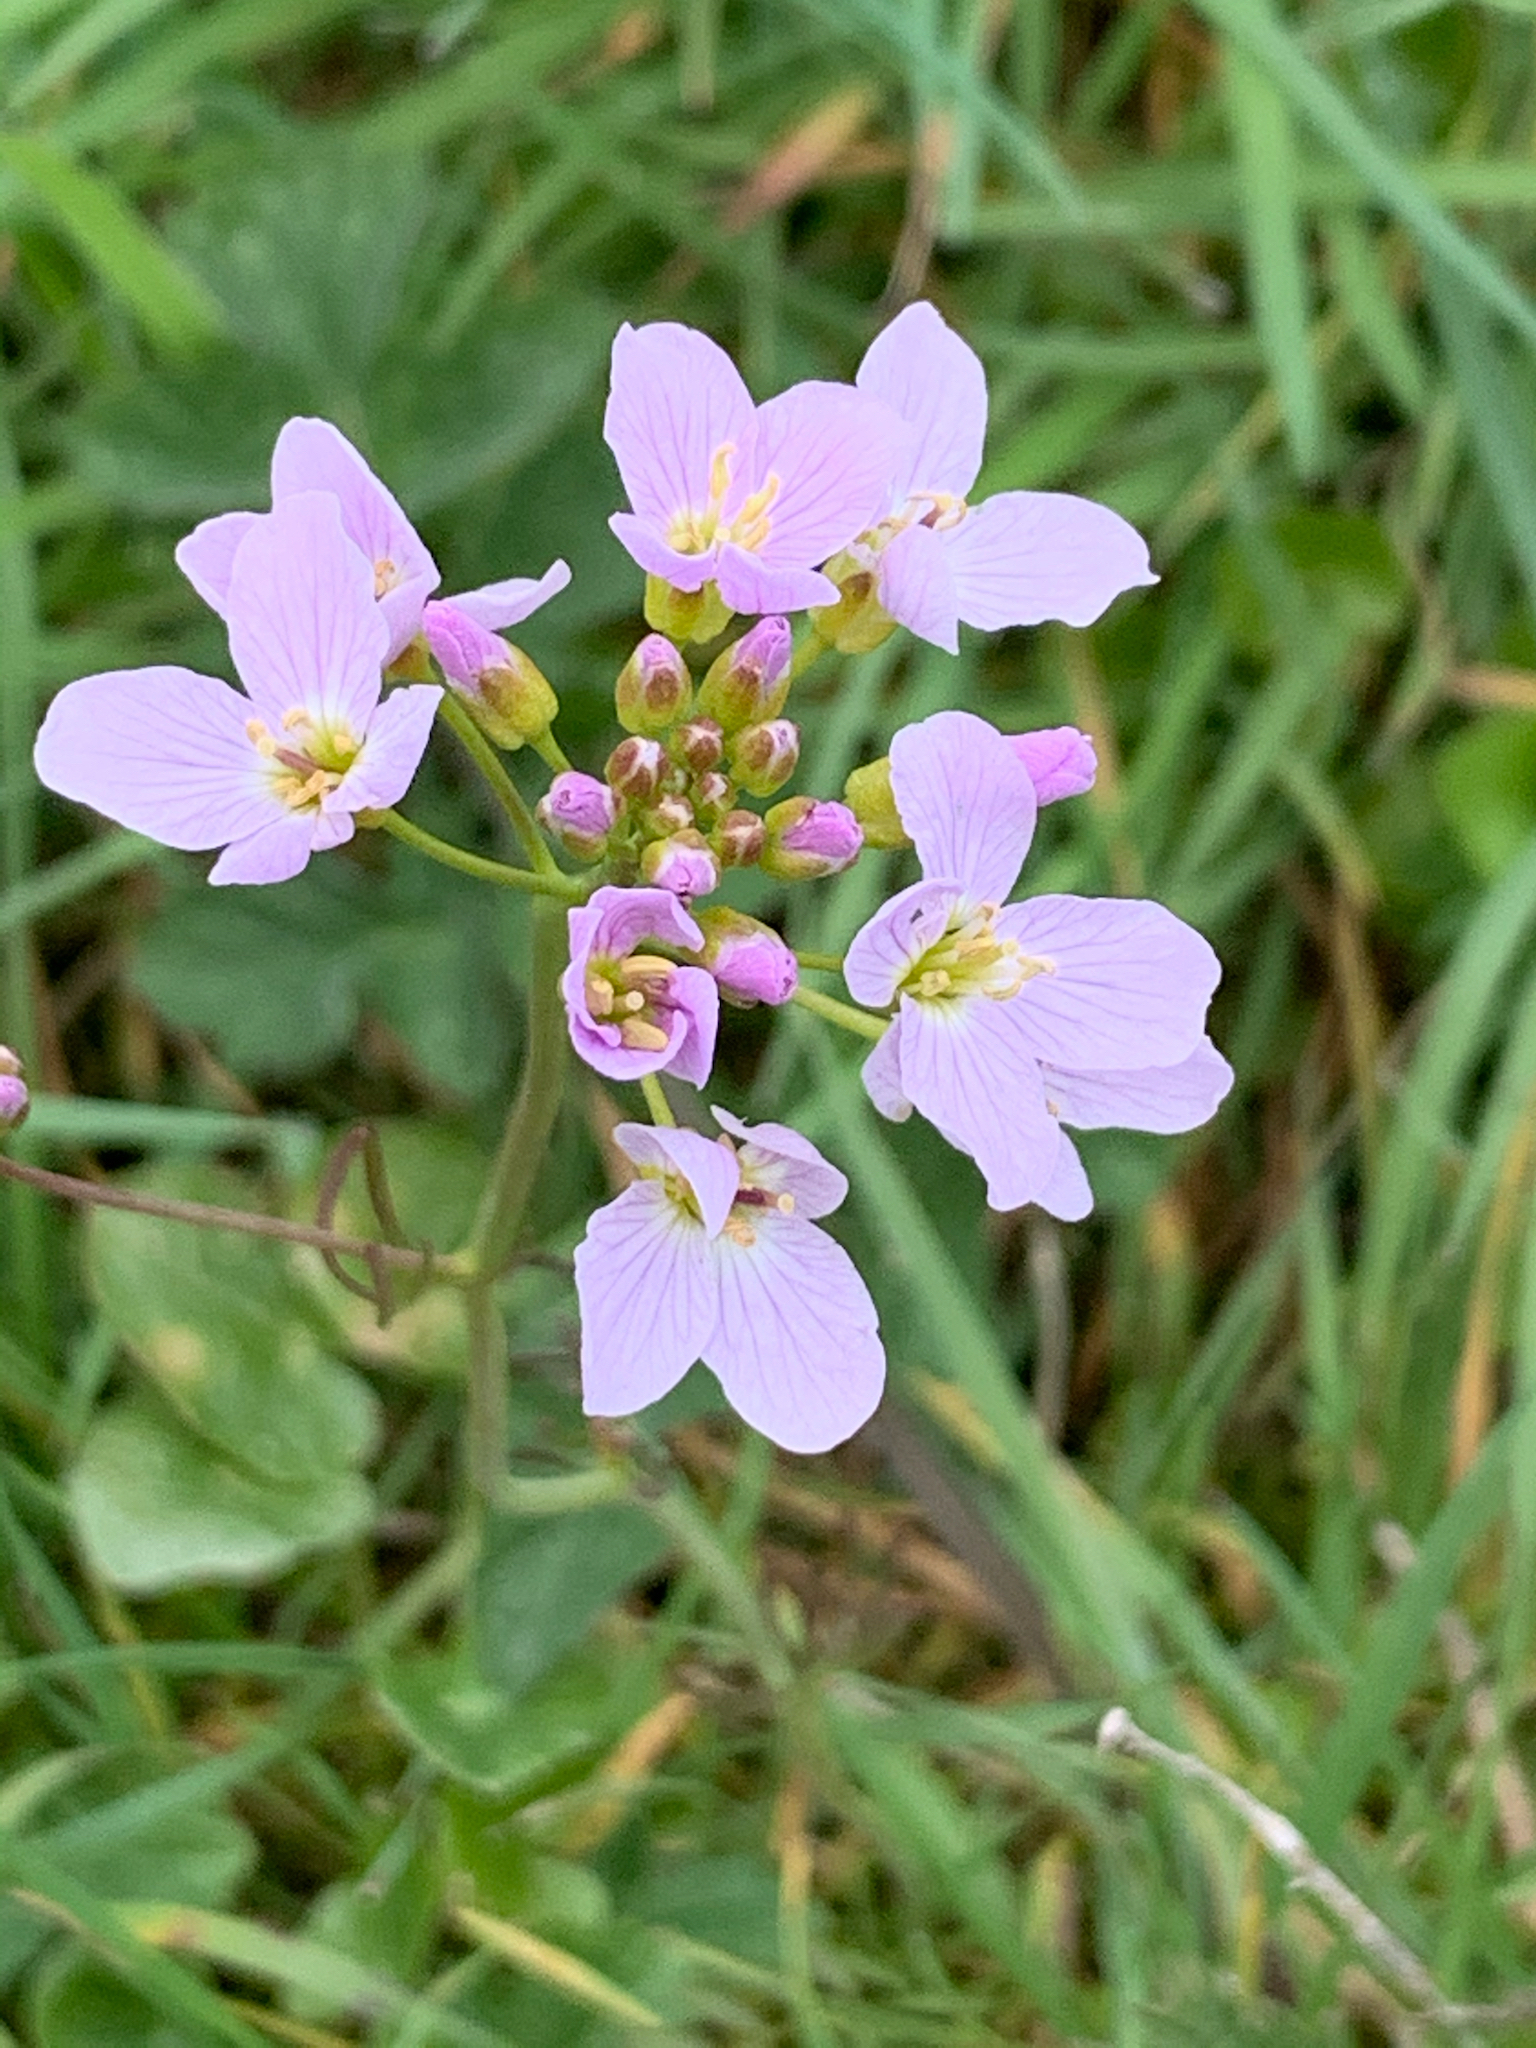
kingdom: Plantae
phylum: Tracheophyta
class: Magnoliopsida
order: Brassicales
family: Brassicaceae
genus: Cardamine
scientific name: Cardamine pratensis
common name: Cuckoo flower
